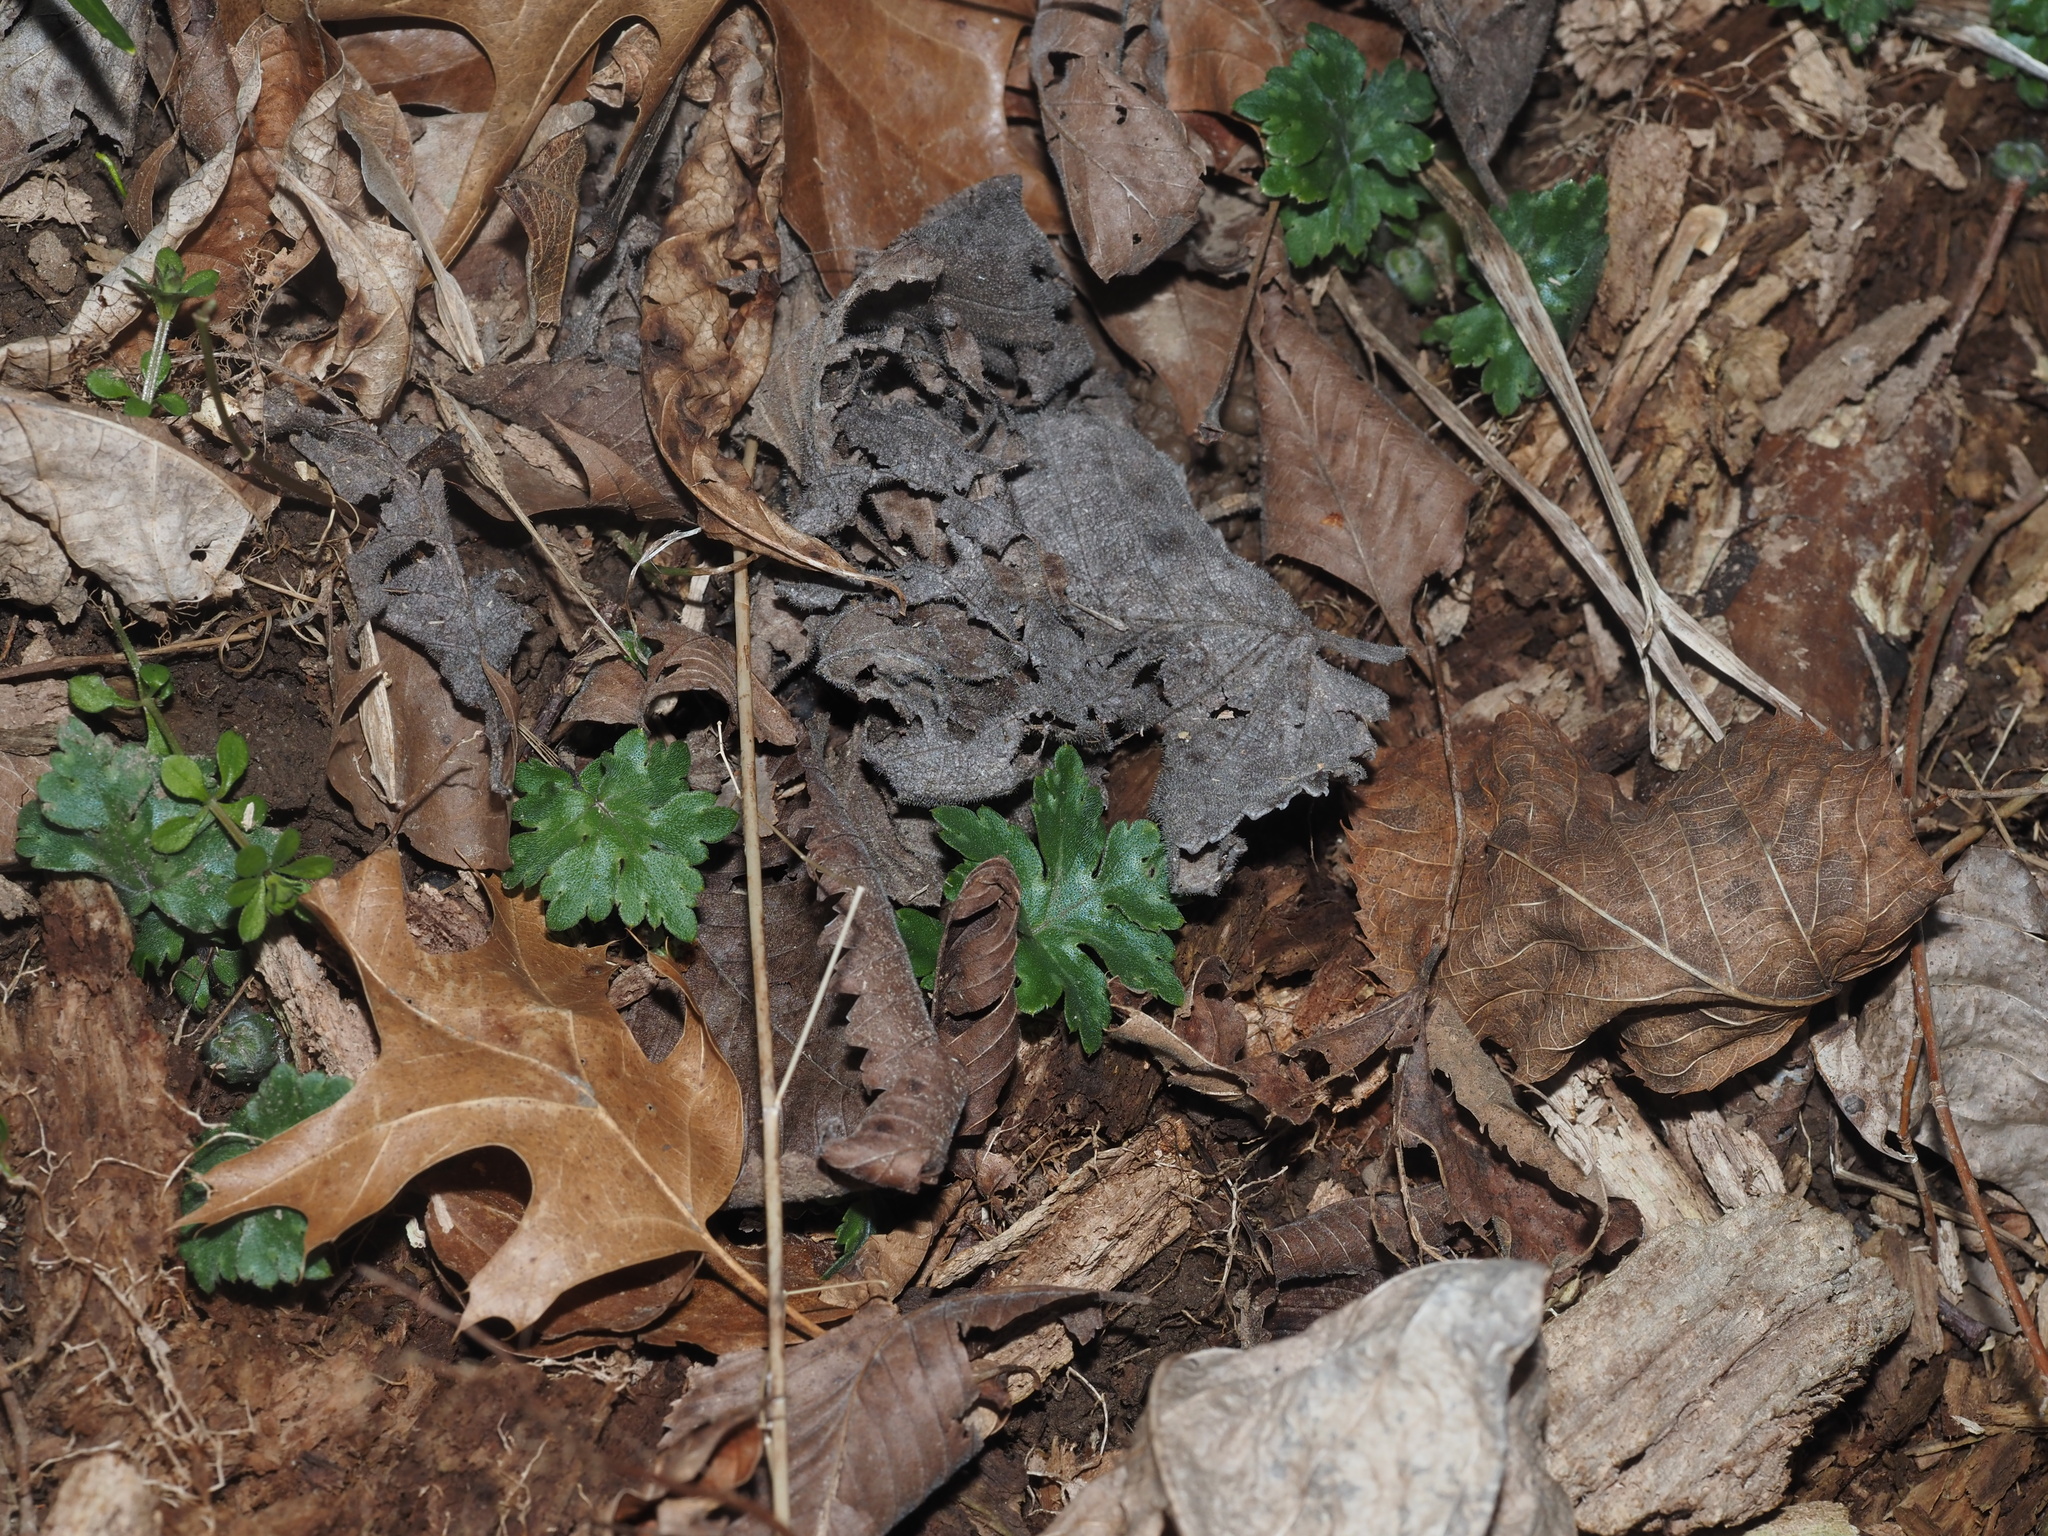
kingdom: Plantae
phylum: Tracheophyta
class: Magnoliopsida
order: Boraginales
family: Hydrophyllaceae
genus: Hydrophyllum
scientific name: Hydrophyllum canadense
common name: Canada waterleaf
